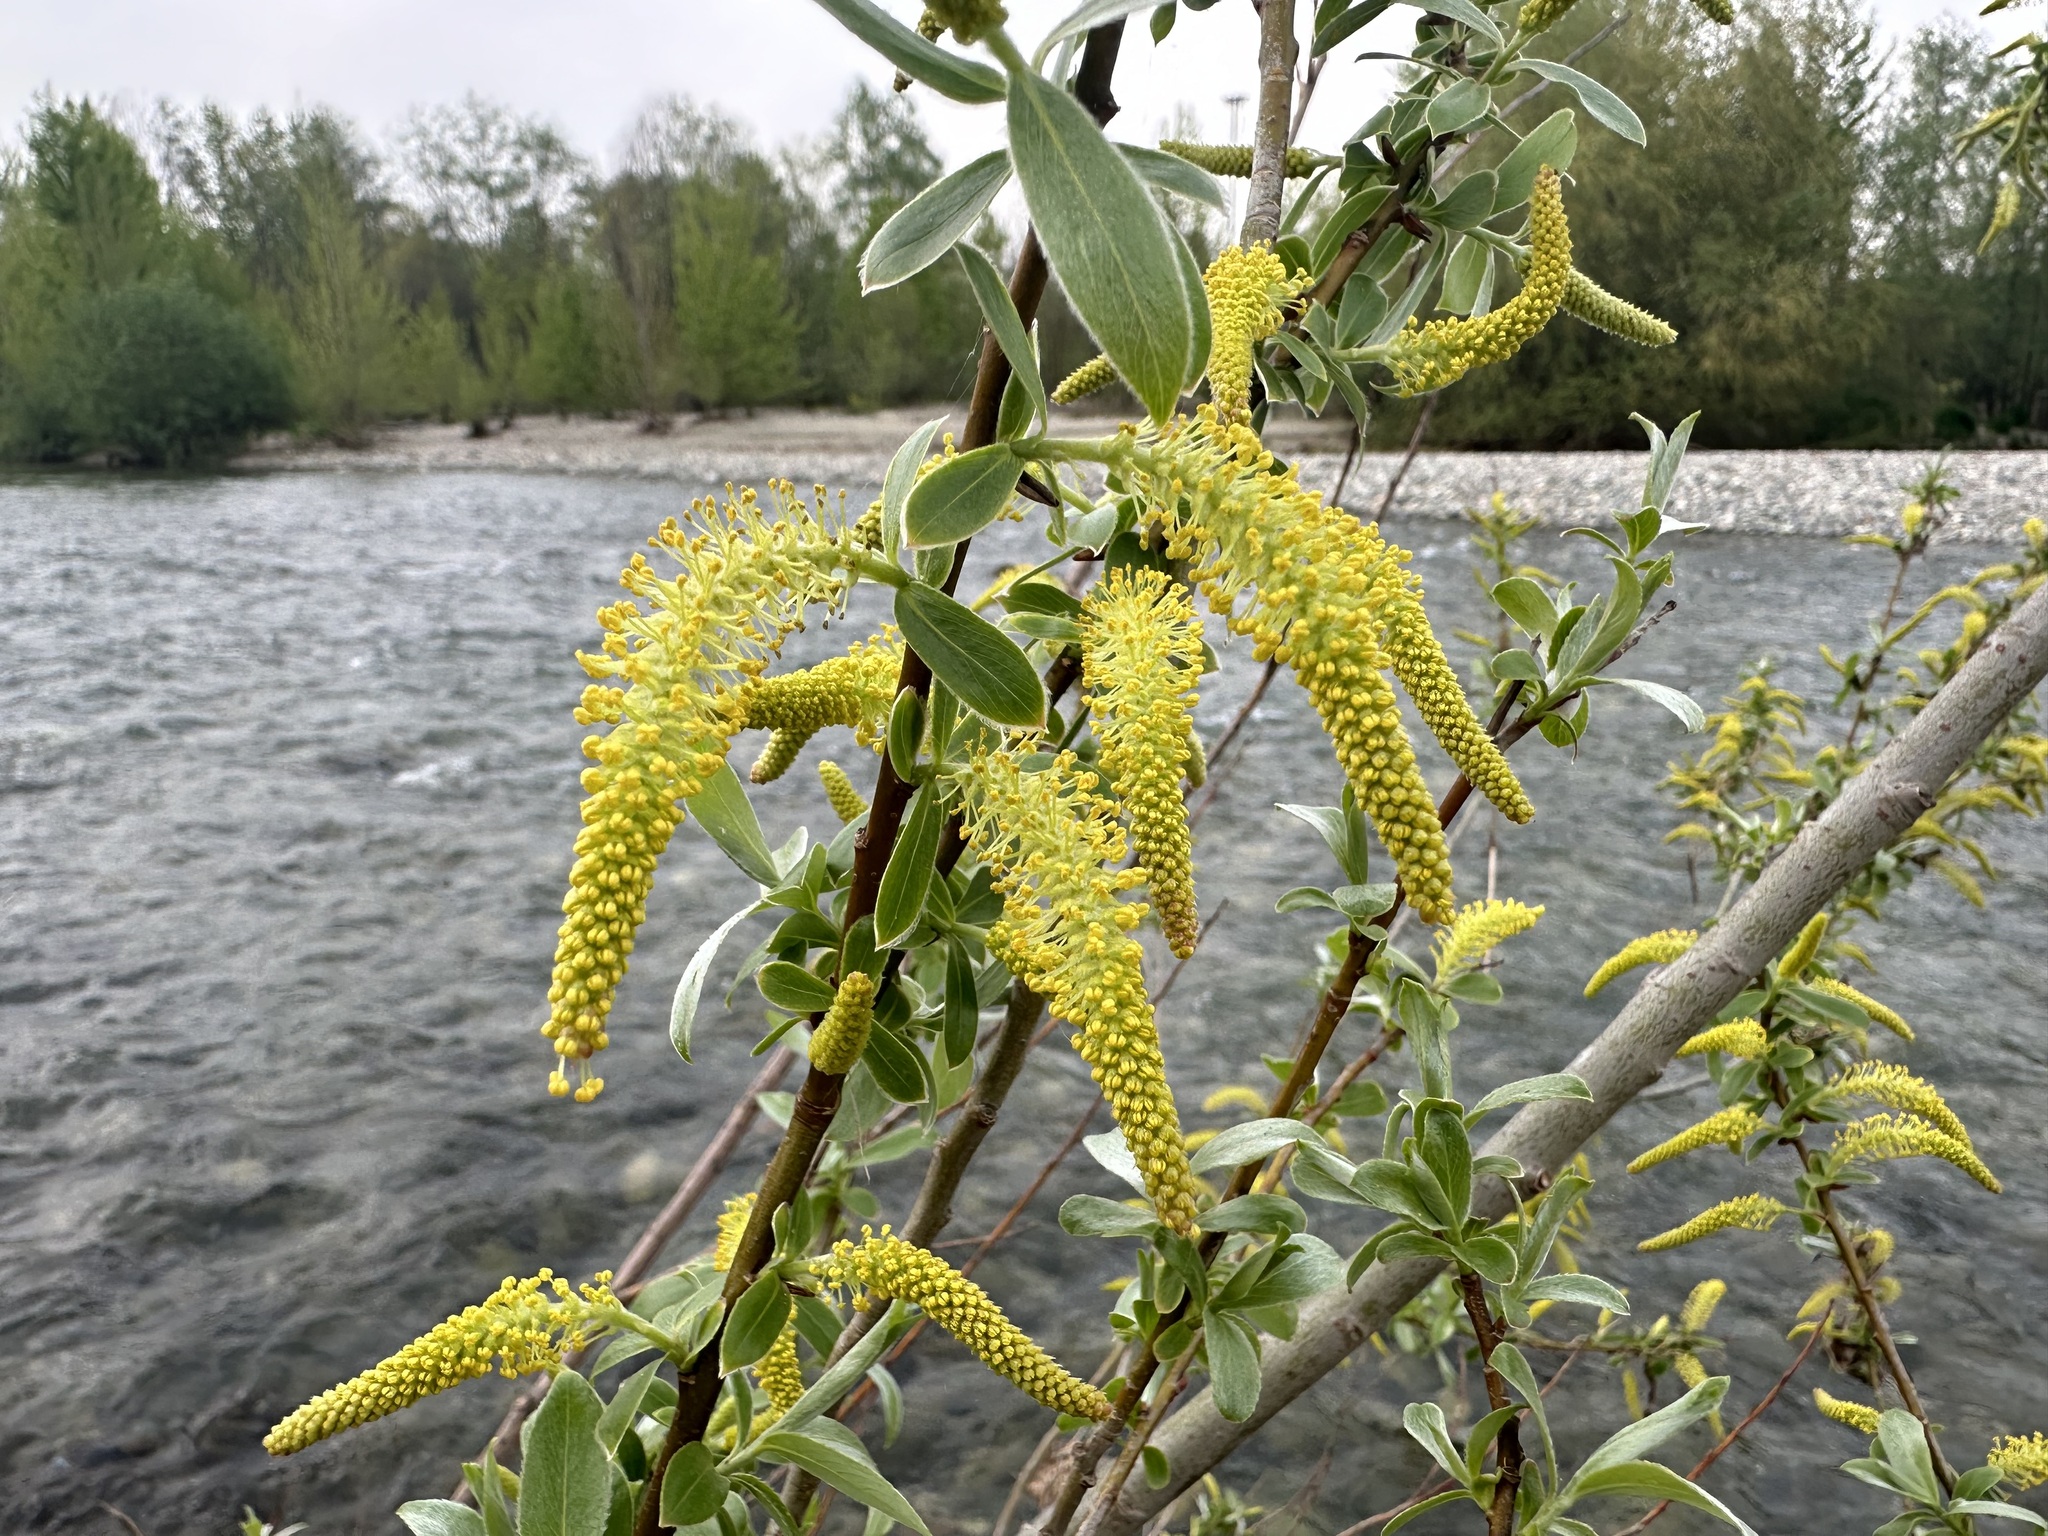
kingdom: Plantae
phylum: Tracheophyta
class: Magnoliopsida
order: Malpighiales
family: Salicaceae
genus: Salix
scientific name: Salix alba
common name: White willow
